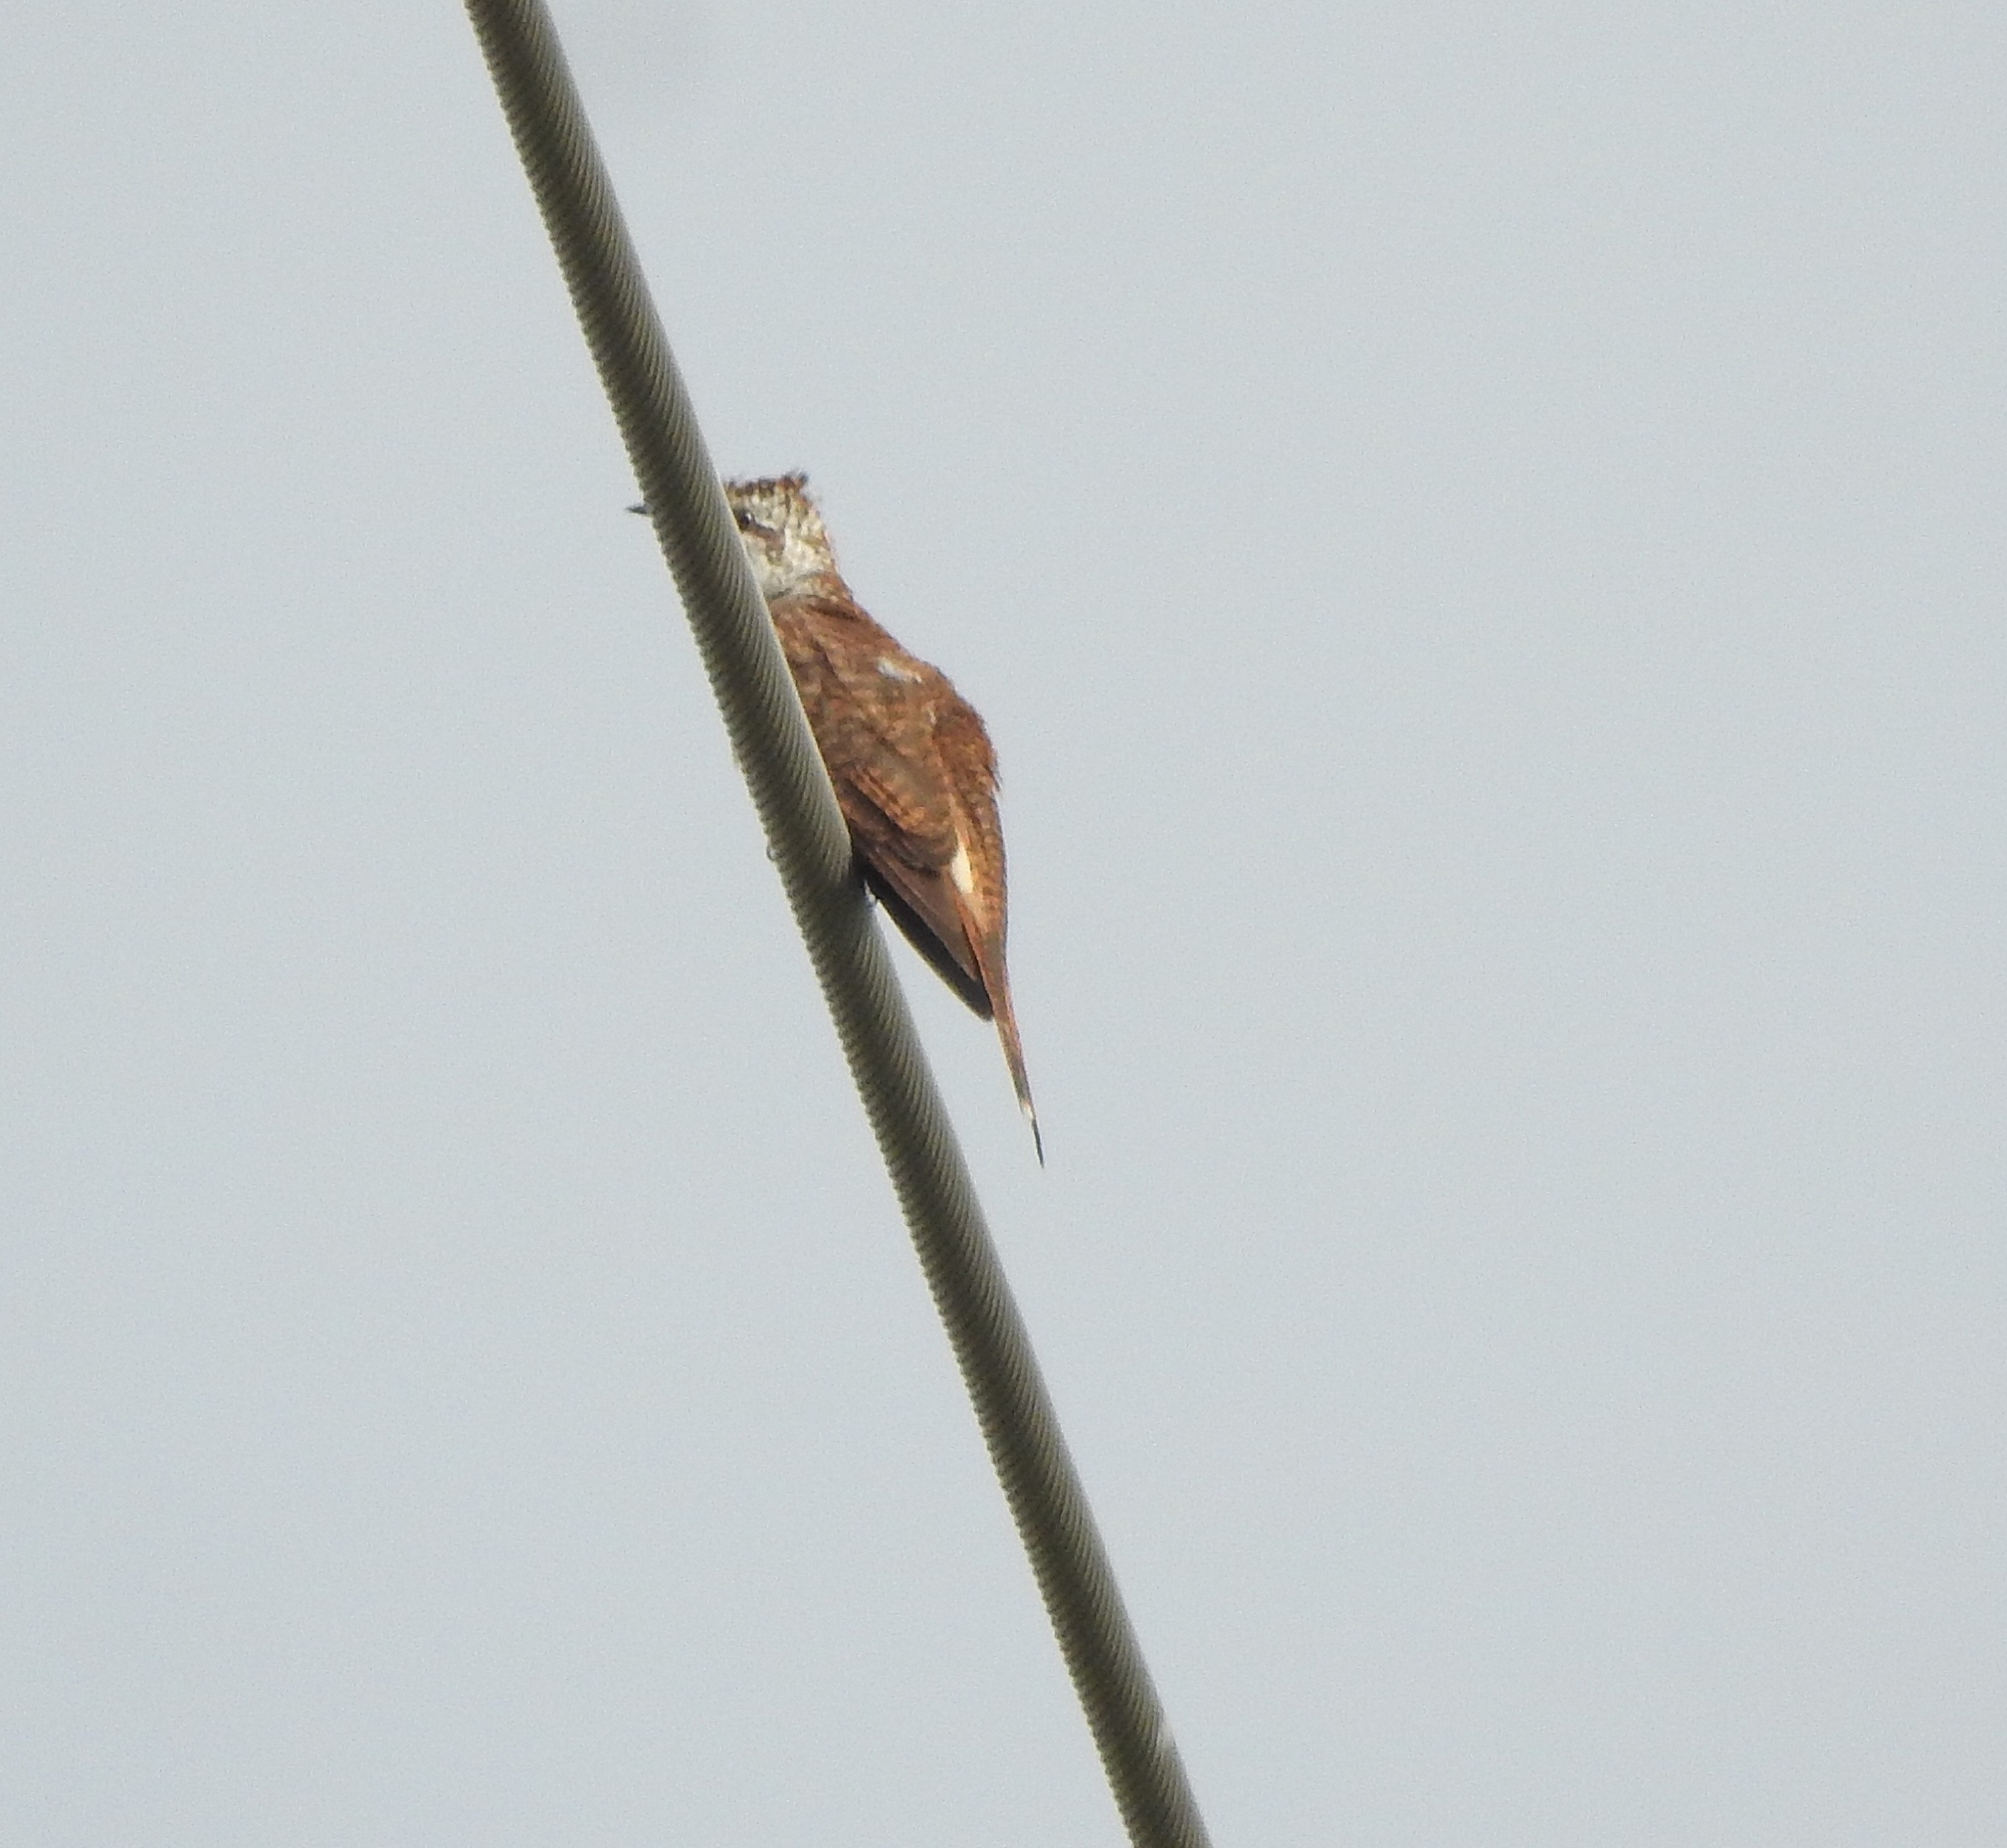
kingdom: Animalia
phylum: Chordata
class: Aves
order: Cuculiformes
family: Cuculidae
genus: Cacomantis
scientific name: Cacomantis sonneratii
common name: Banded bay cuckoo
